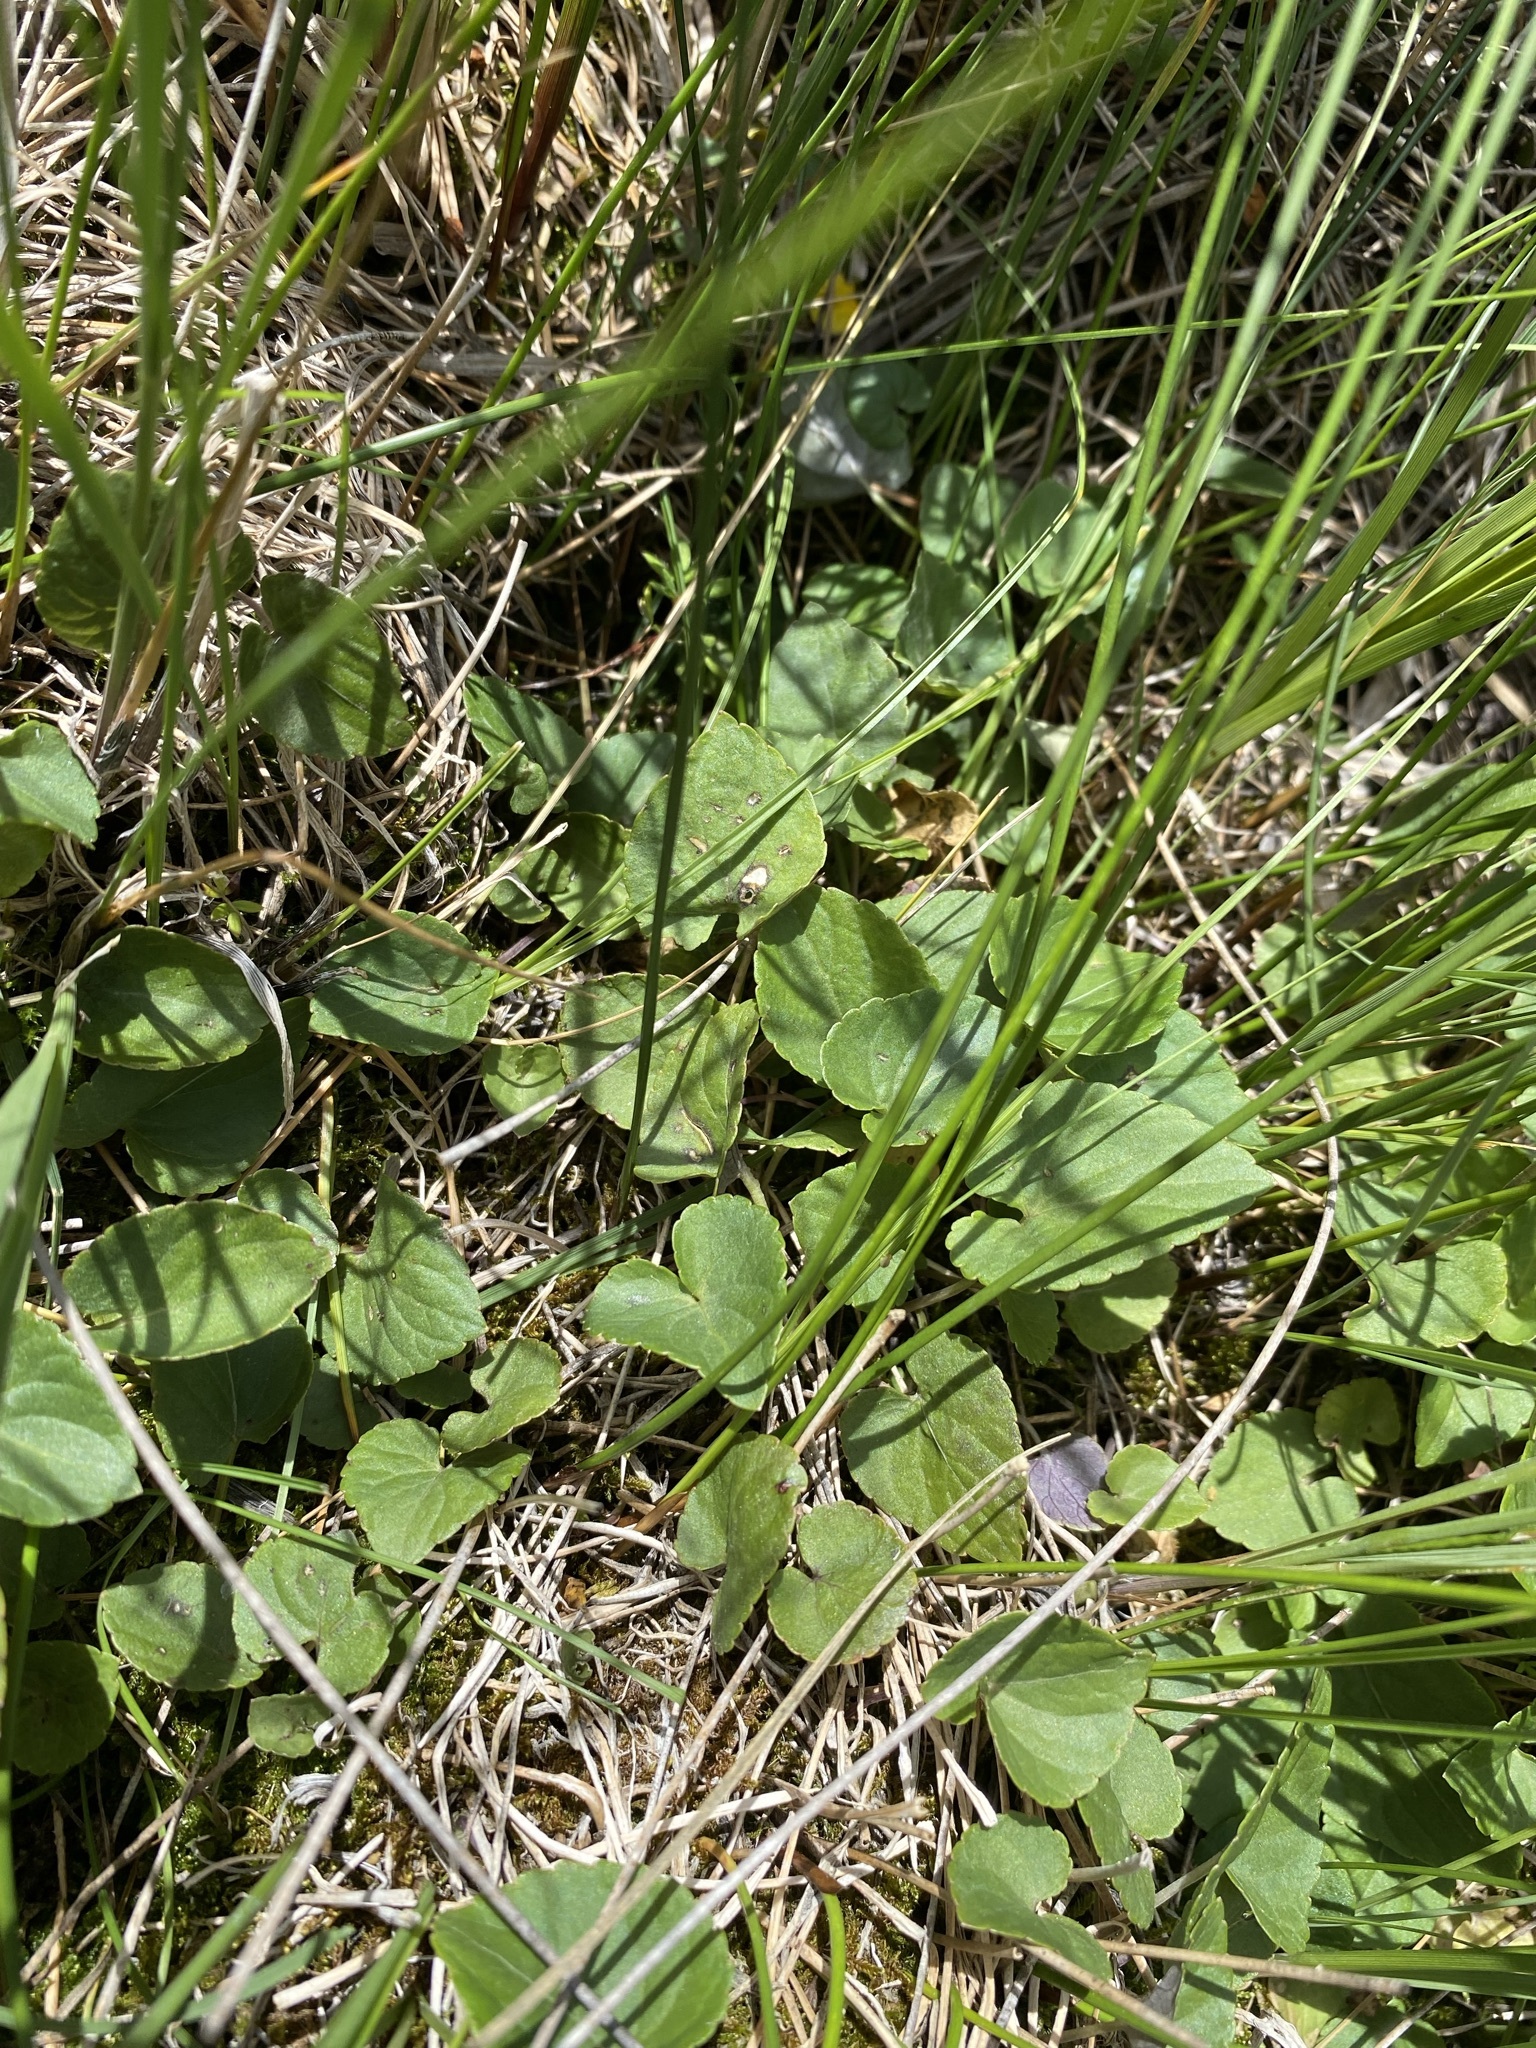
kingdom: Plantae
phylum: Tracheophyta
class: Magnoliopsida
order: Malpighiales
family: Violaceae
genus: Viola
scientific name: Viola
